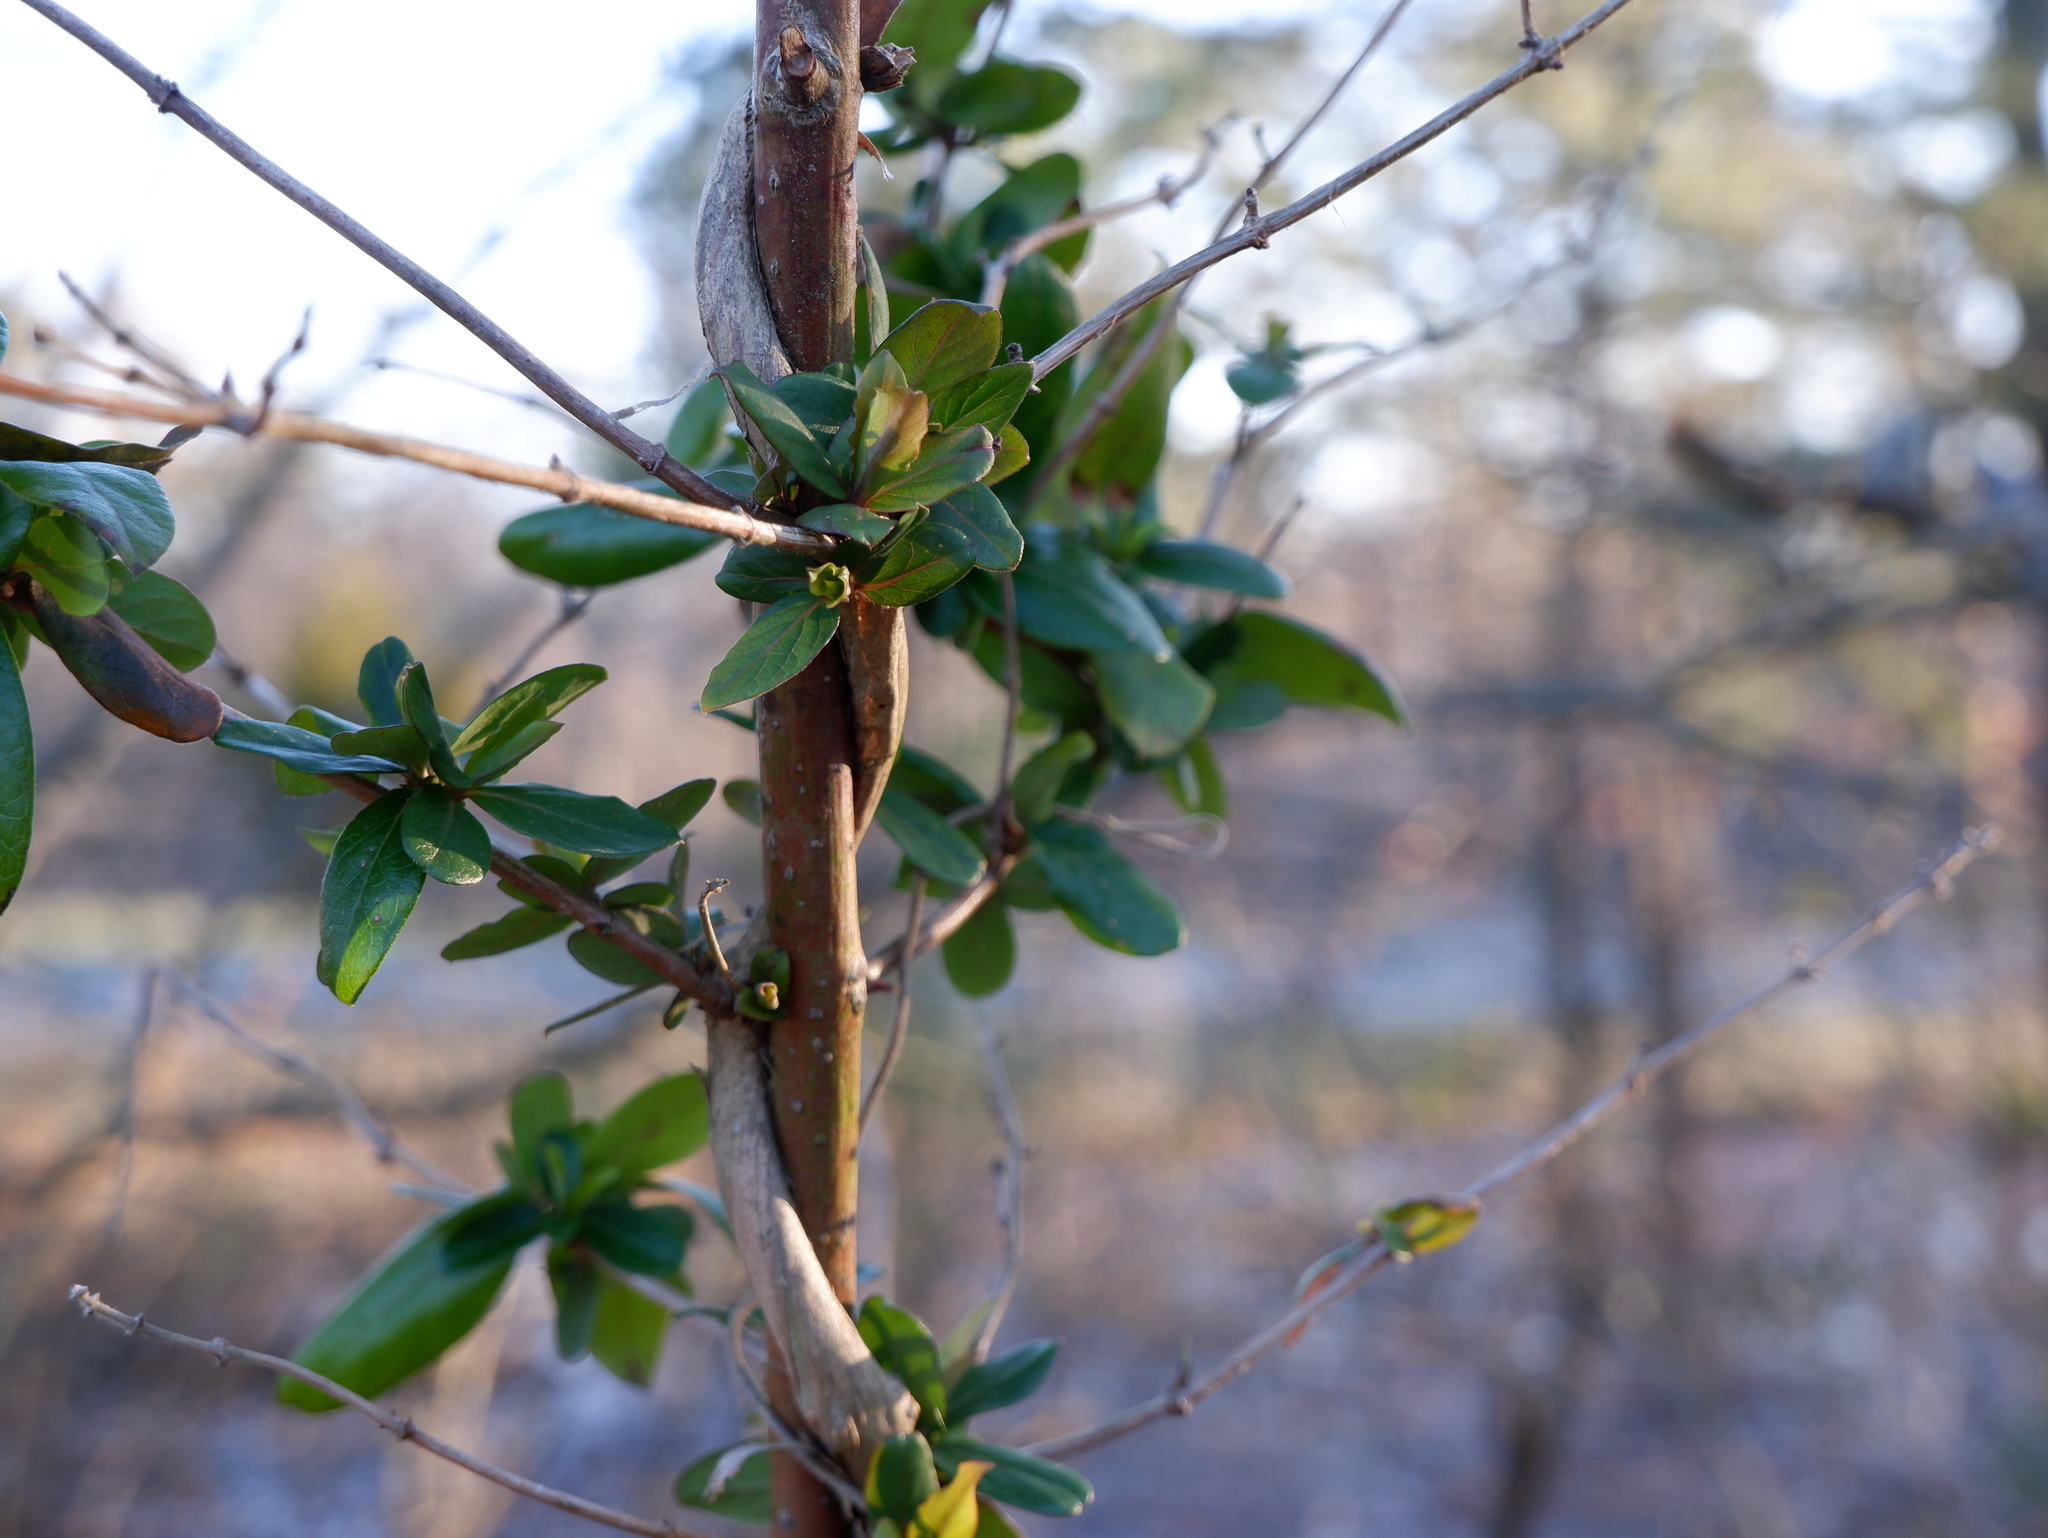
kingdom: Plantae
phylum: Tracheophyta
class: Magnoliopsida
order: Dipsacales
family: Caprifoliaceae
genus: Lonicera
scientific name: Lonicera japonica
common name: Japanese honeysuckle
